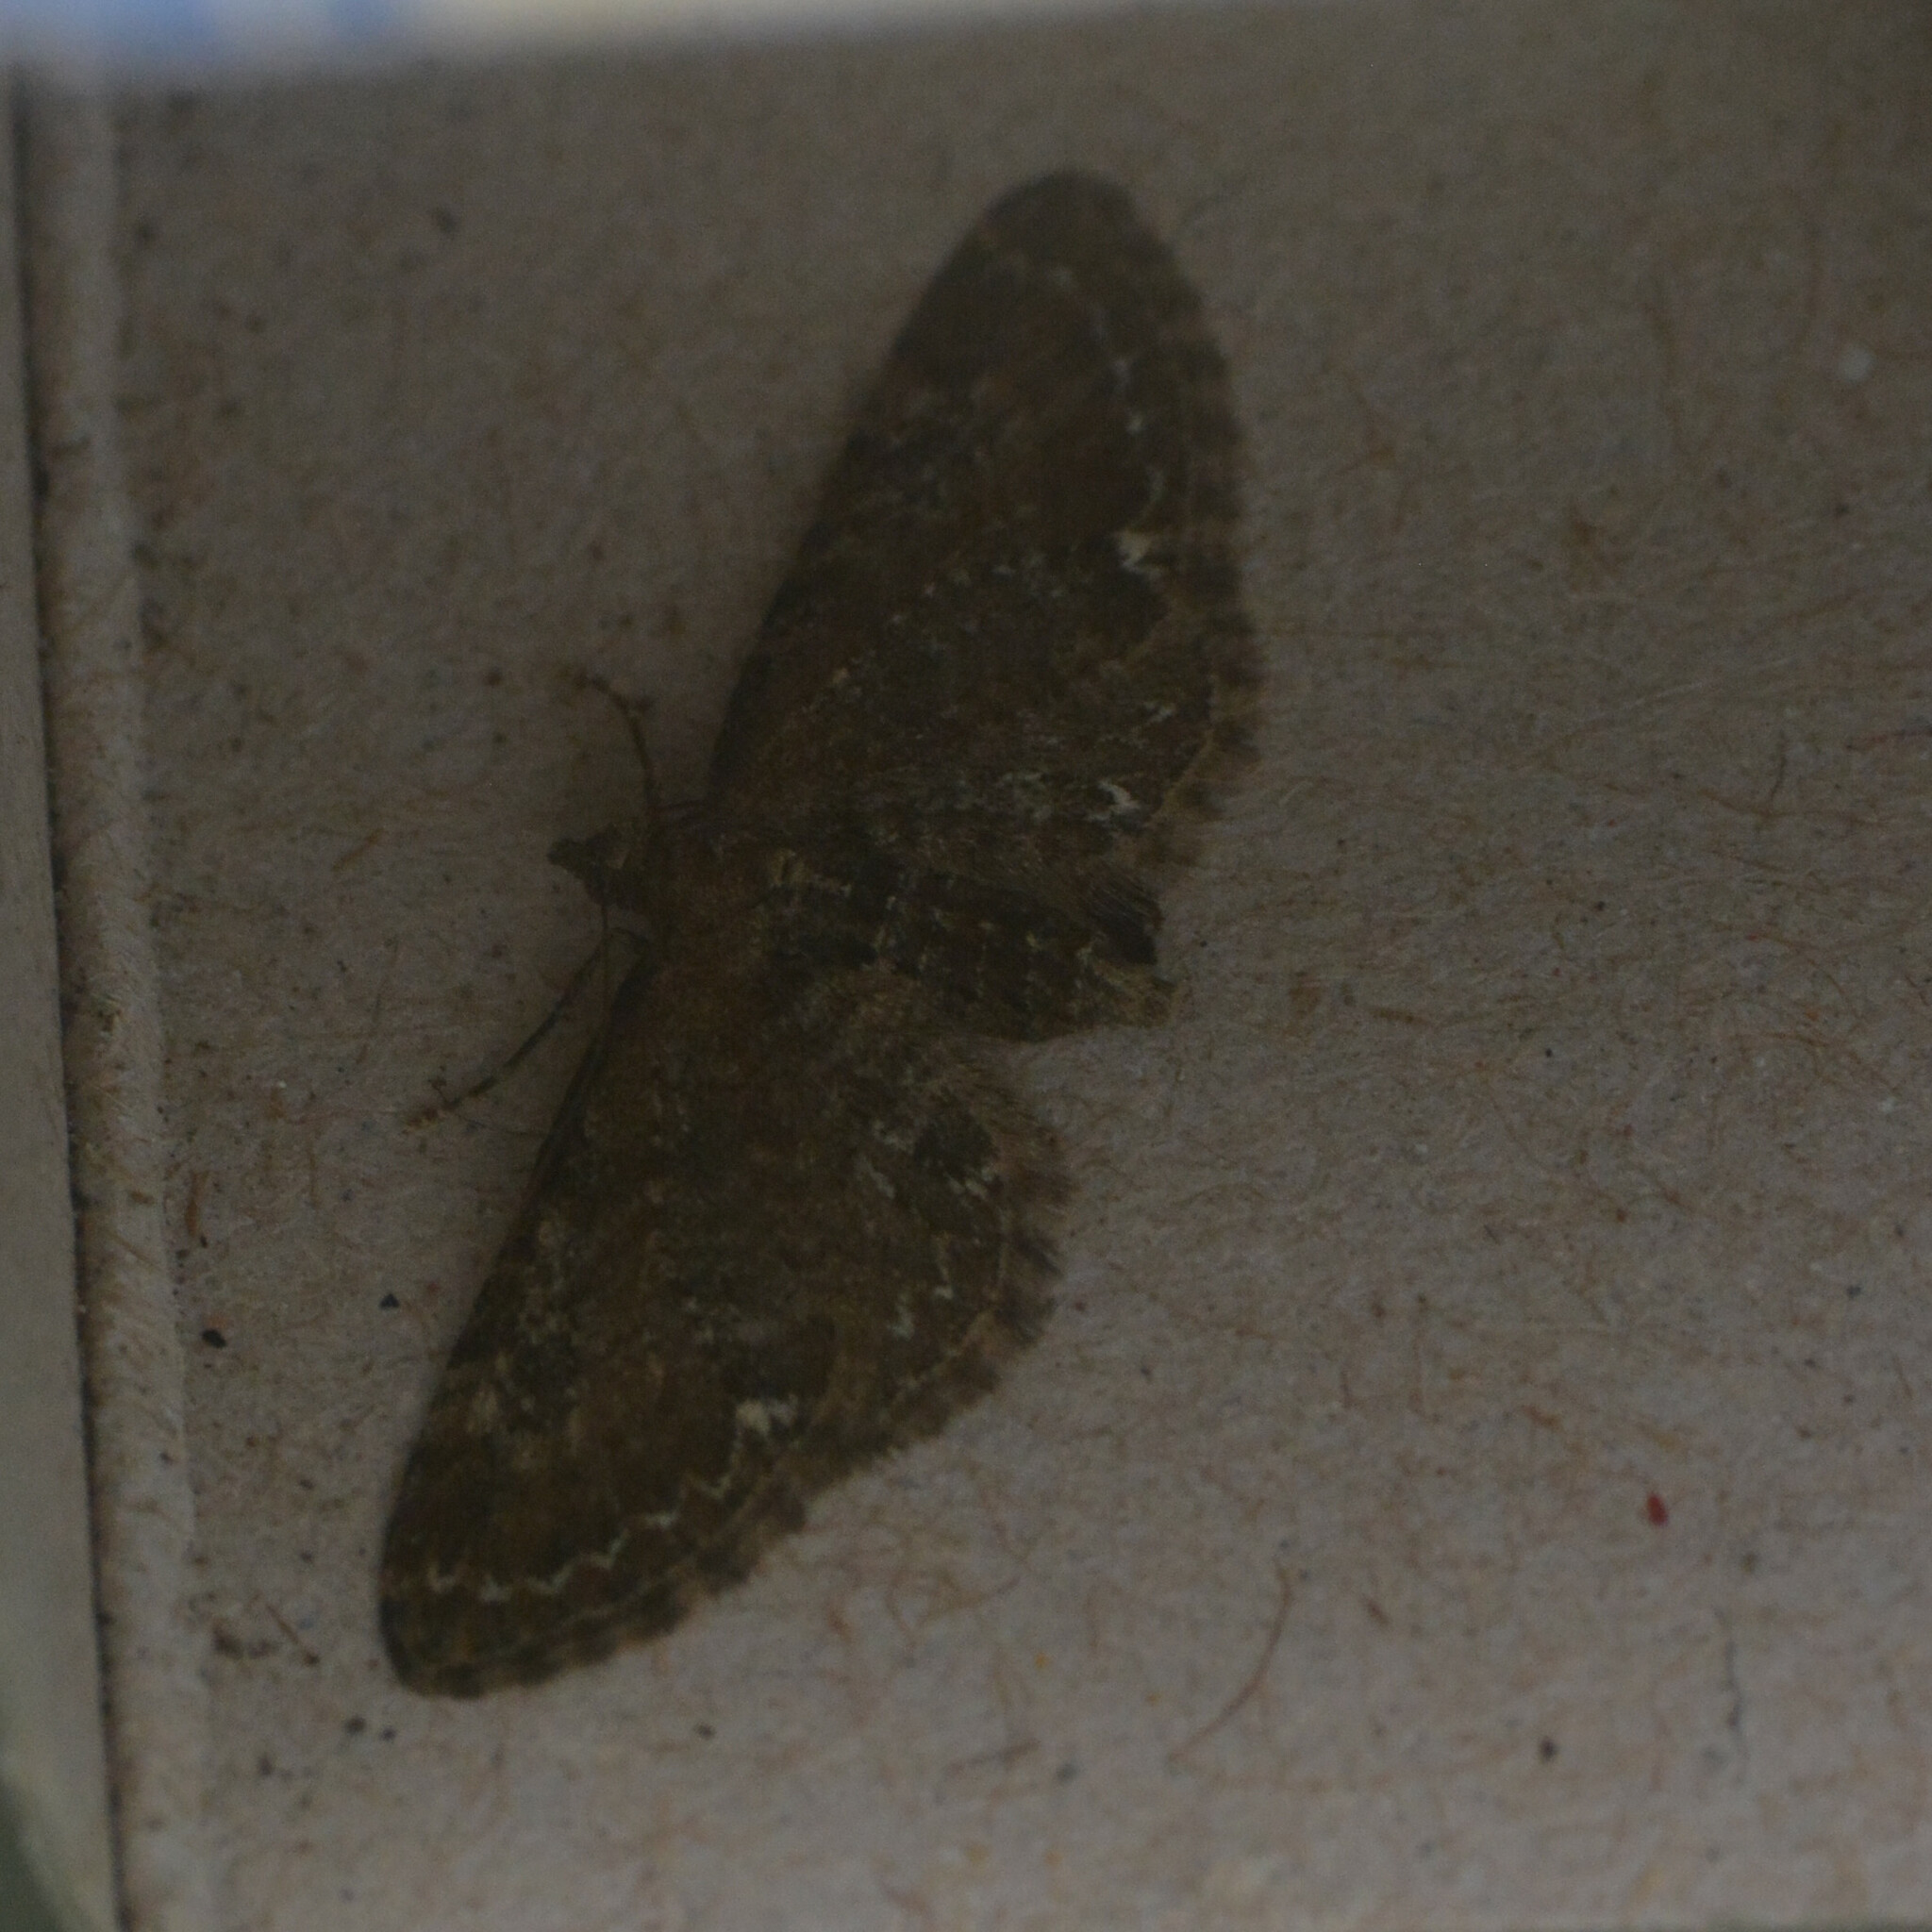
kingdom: Animalia
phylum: Arthropoda
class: Insecta
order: Lepidoptera
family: Geometridae
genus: Eupithecia
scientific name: Eupithecia vulgata
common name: Common pug
